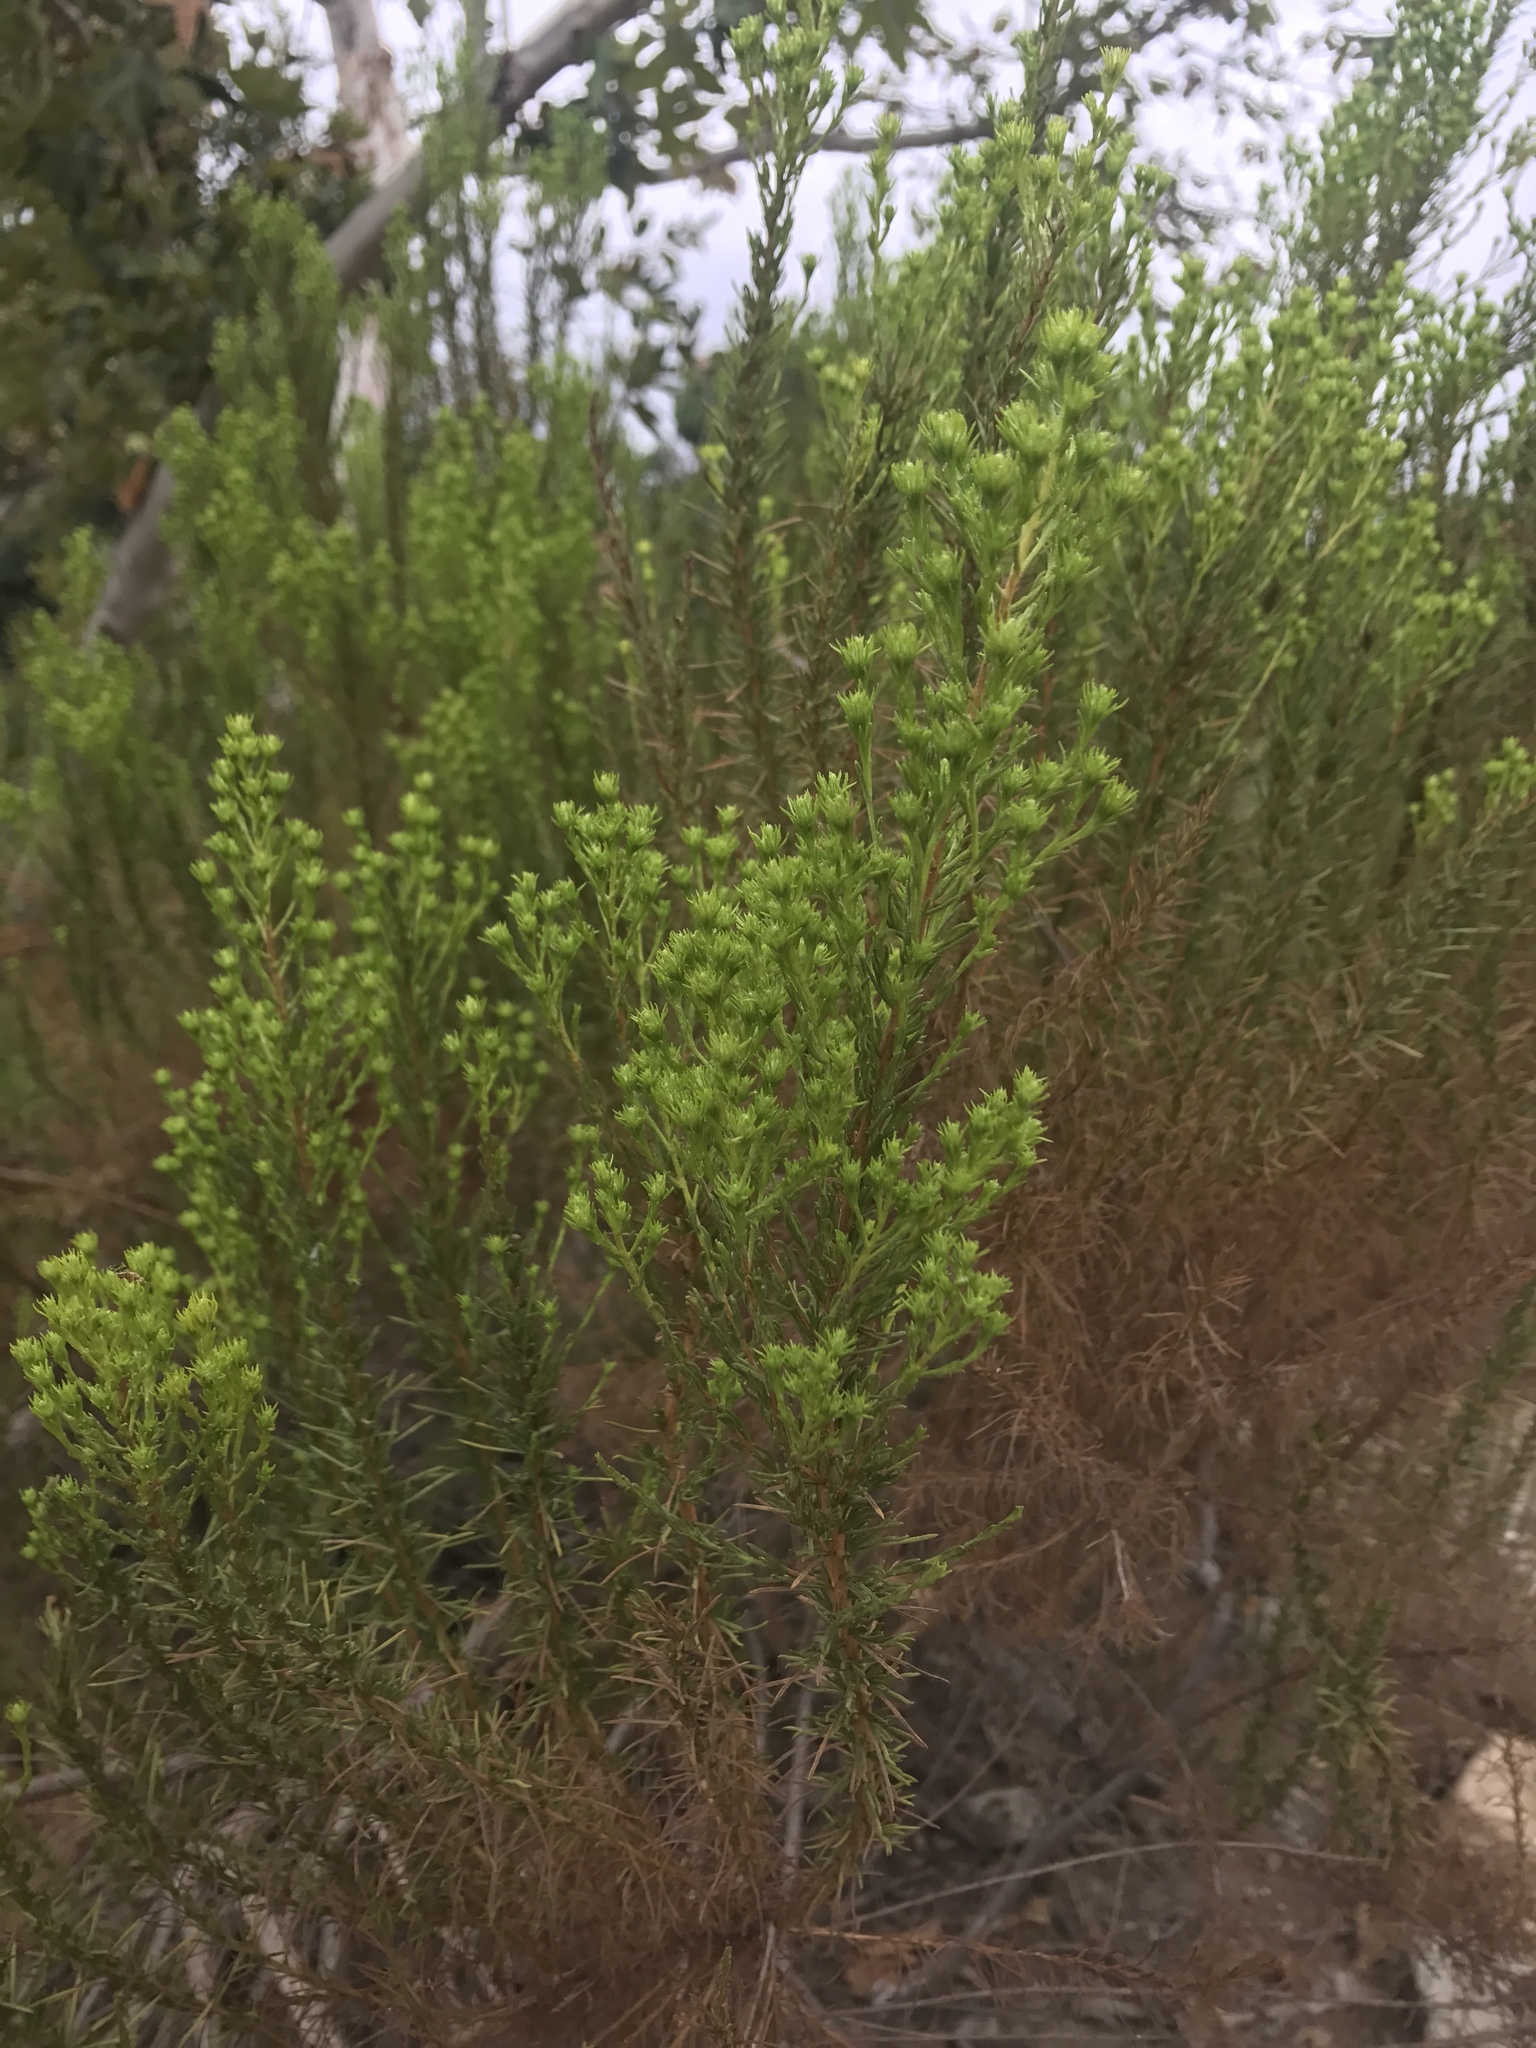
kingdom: Plantae
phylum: Tracheophyta
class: Magnoliopsida
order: Asterales
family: Asteraceae
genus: Ericameria
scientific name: Ericameria pinifolia
